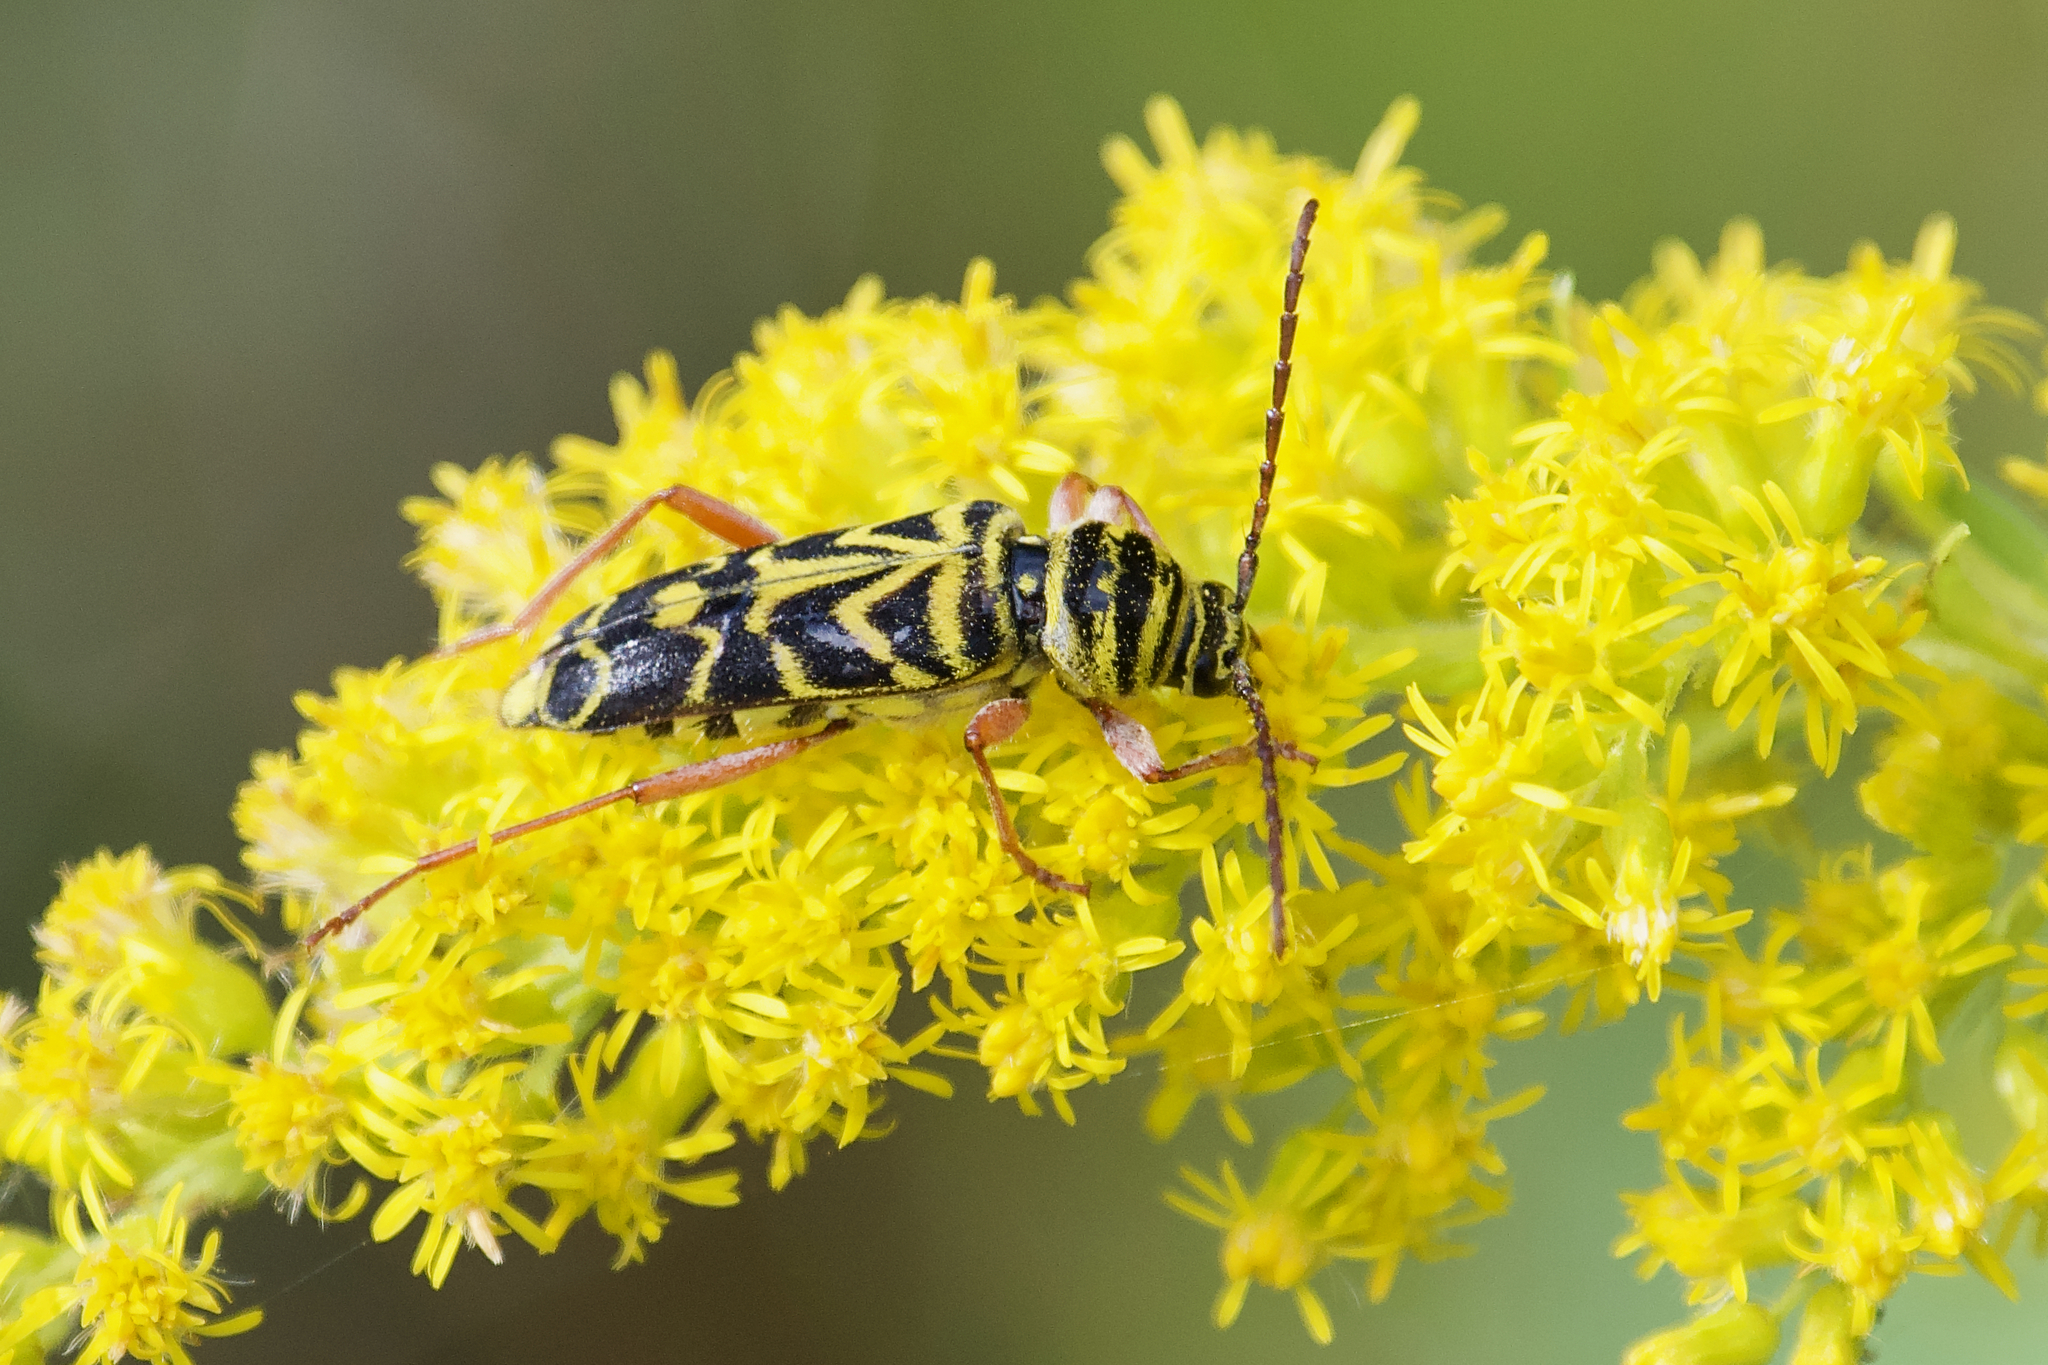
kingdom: Animalia
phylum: Arthropoda
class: Insecta
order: Coleoptera
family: Cerambycidae
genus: Megacyllene
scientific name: Megacyllene robiniae
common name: Locust borer
